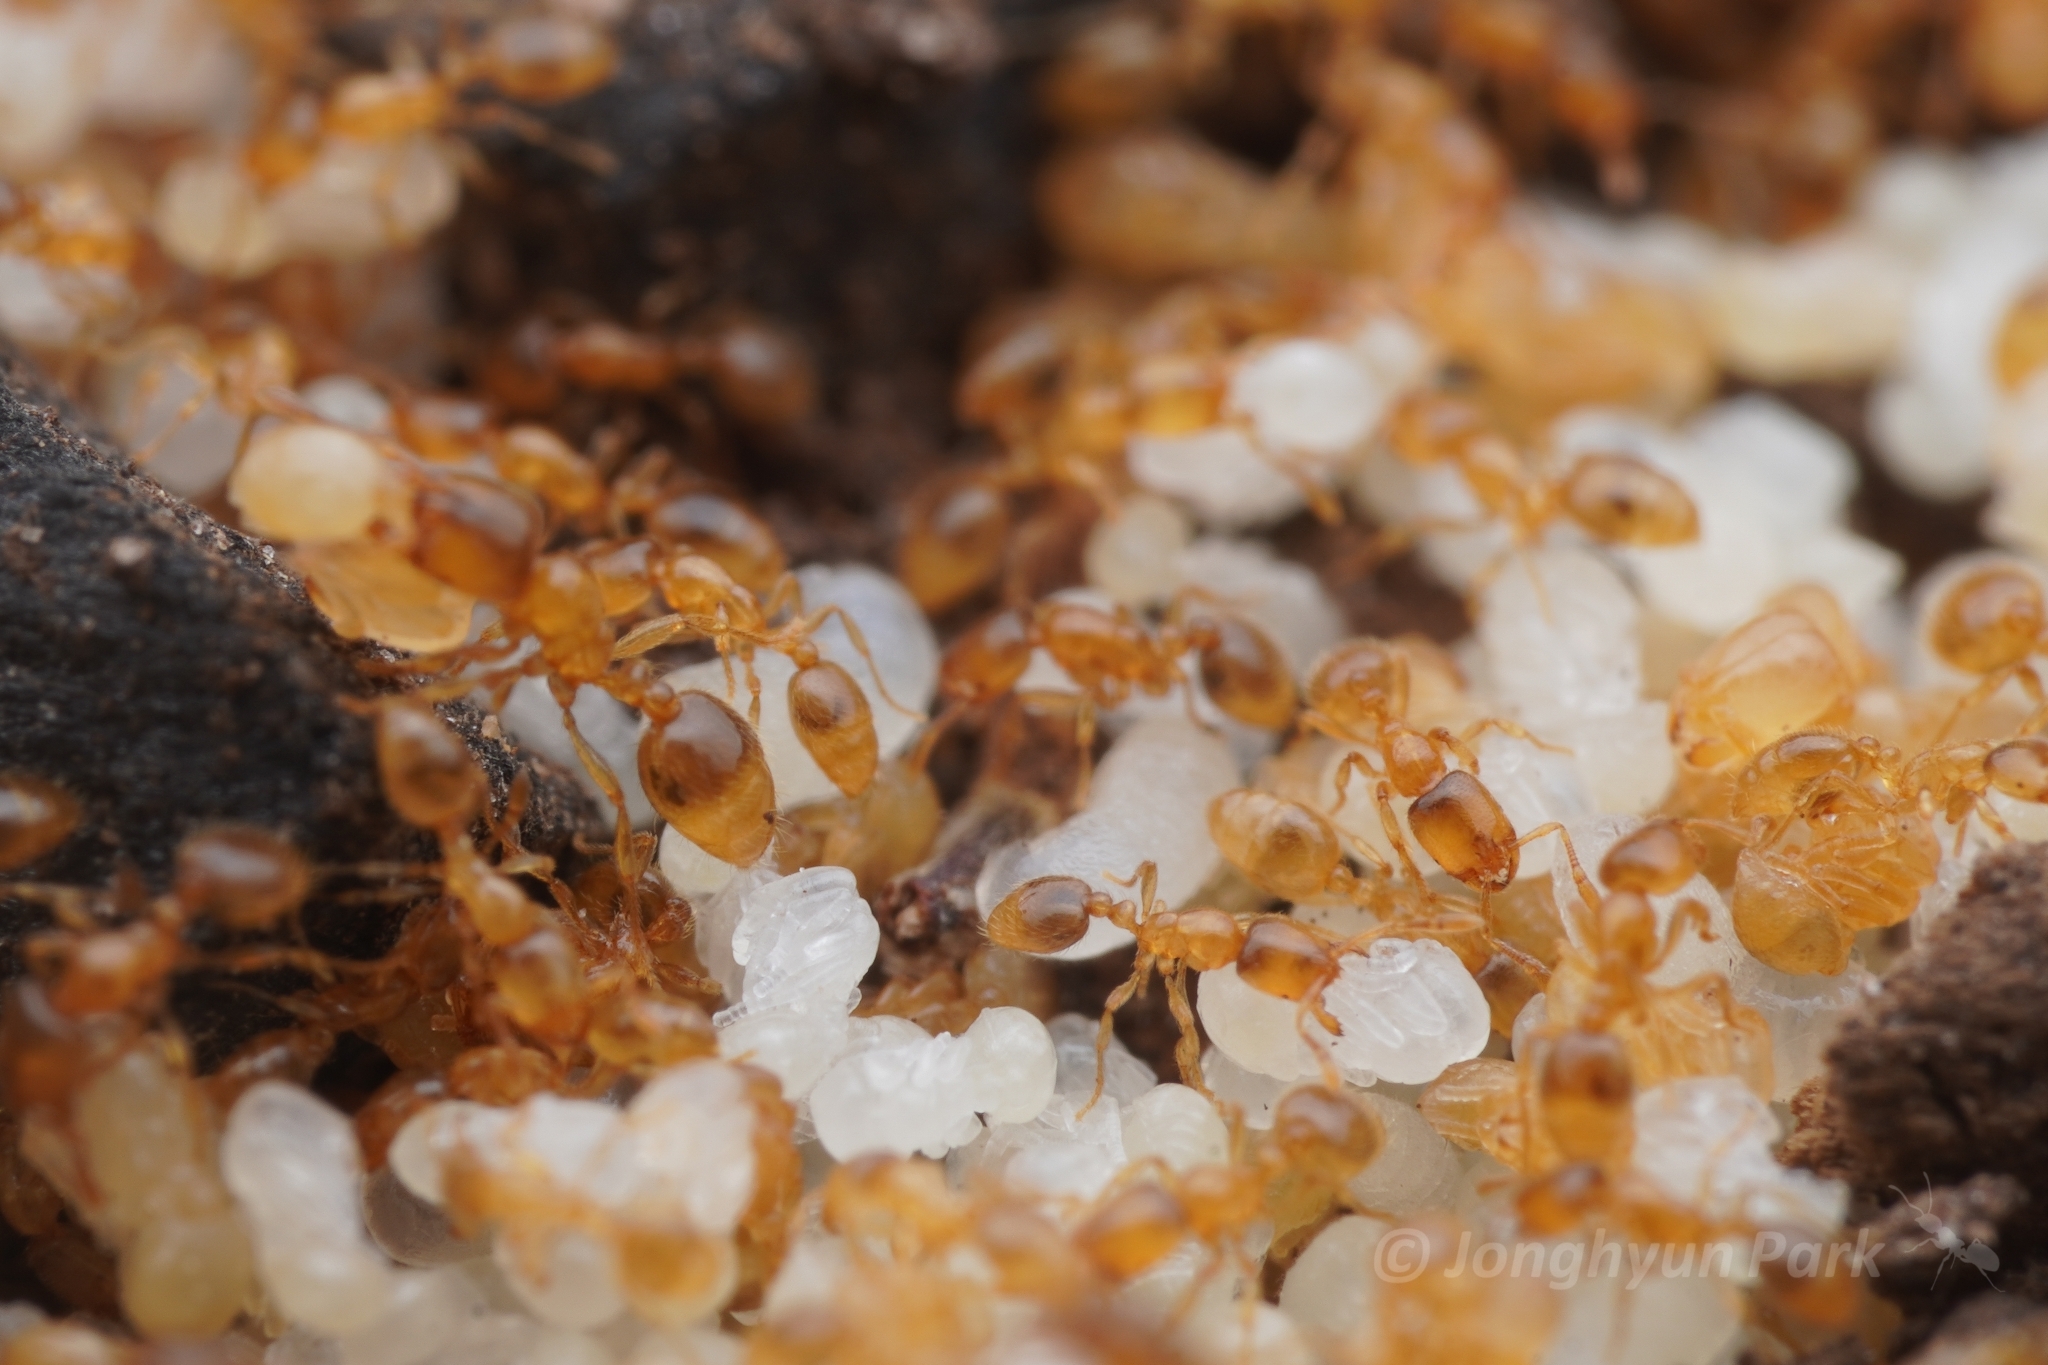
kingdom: Animalia
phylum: Arthropoda
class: Insecta
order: Hymenoptera
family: Formicidae
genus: Solenopsis
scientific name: Solenopsis punctaticeps
